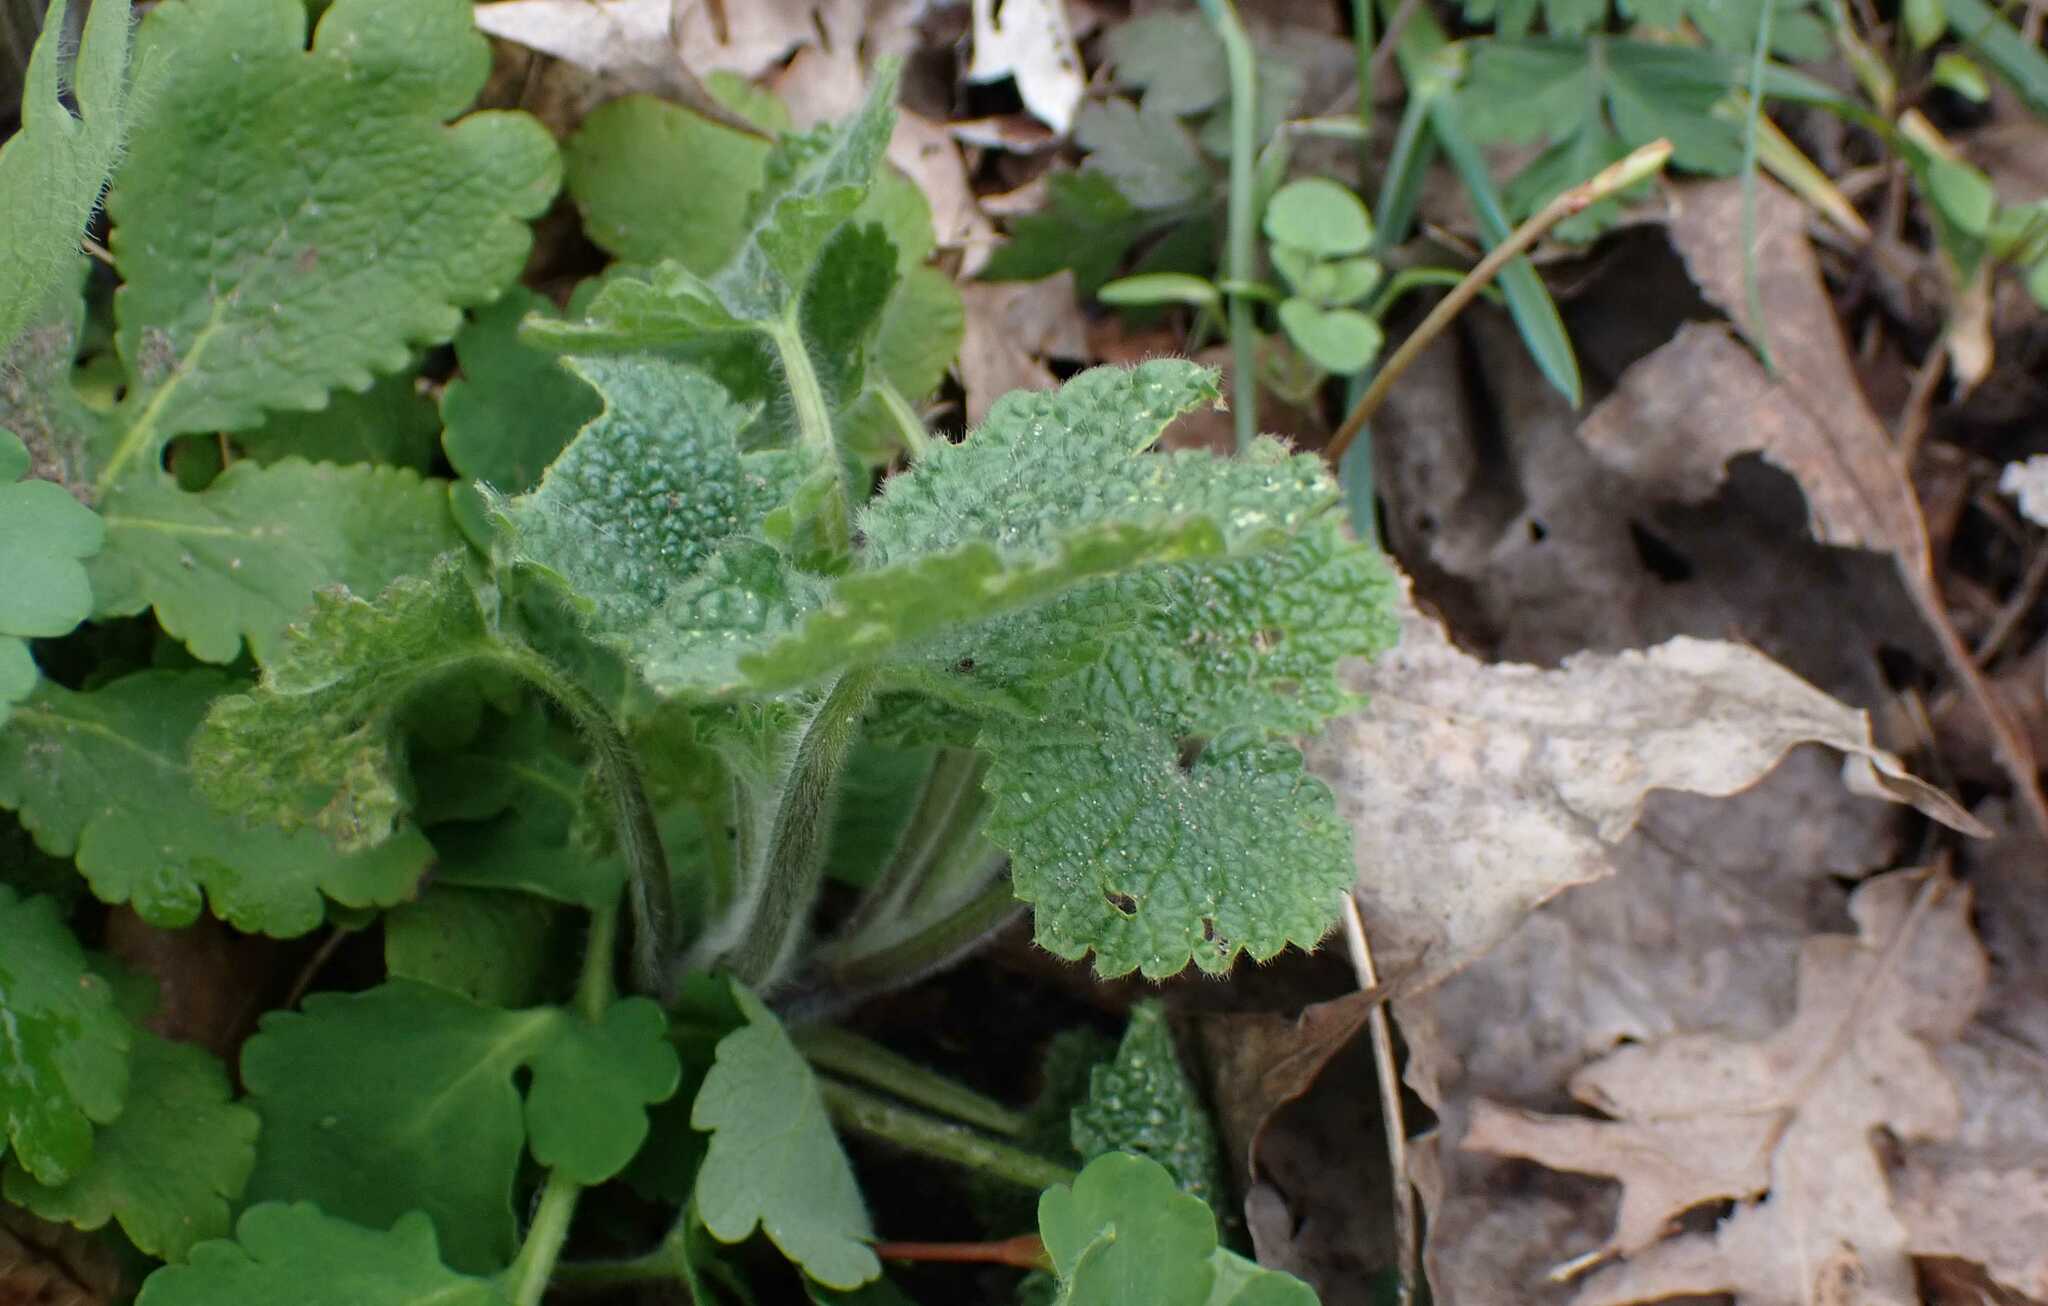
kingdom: Plantae
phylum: Tracheophyta
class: Magnoliopsida
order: Lamiales
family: Lamiaceae
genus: Ballota
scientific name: Ballota nigra
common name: Black horehound
